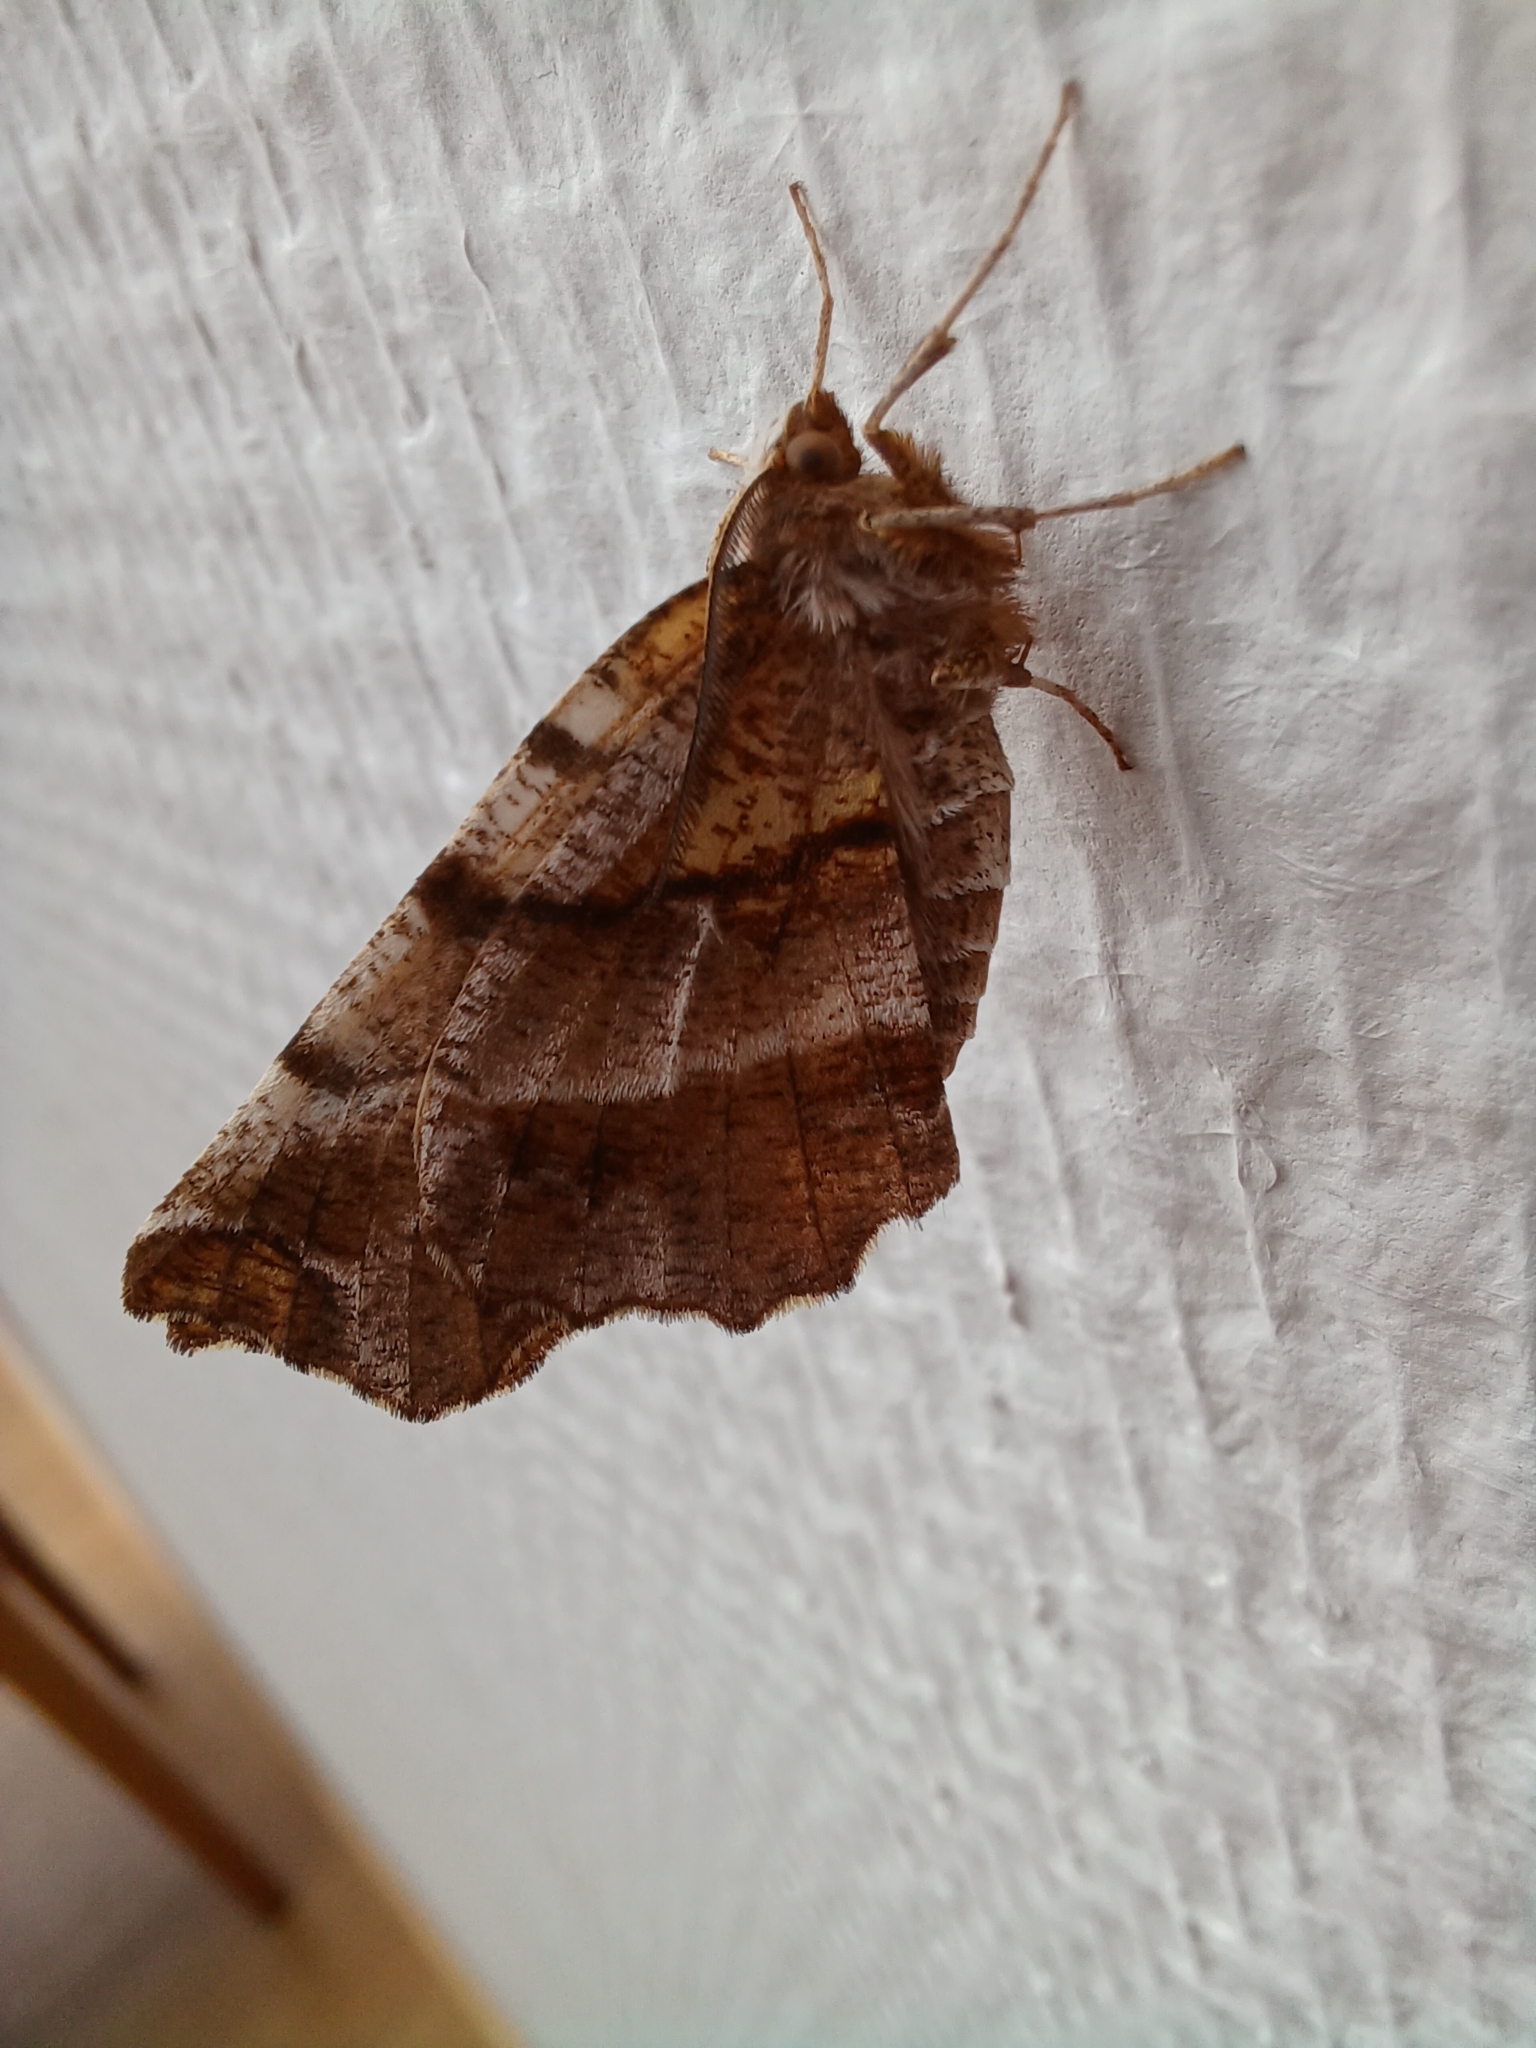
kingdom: Animalia
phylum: Arthropoda
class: Insecta
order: Lepidoptera
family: Geometridae
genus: Selenia
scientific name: Selenia dentaria
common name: Early thorn
